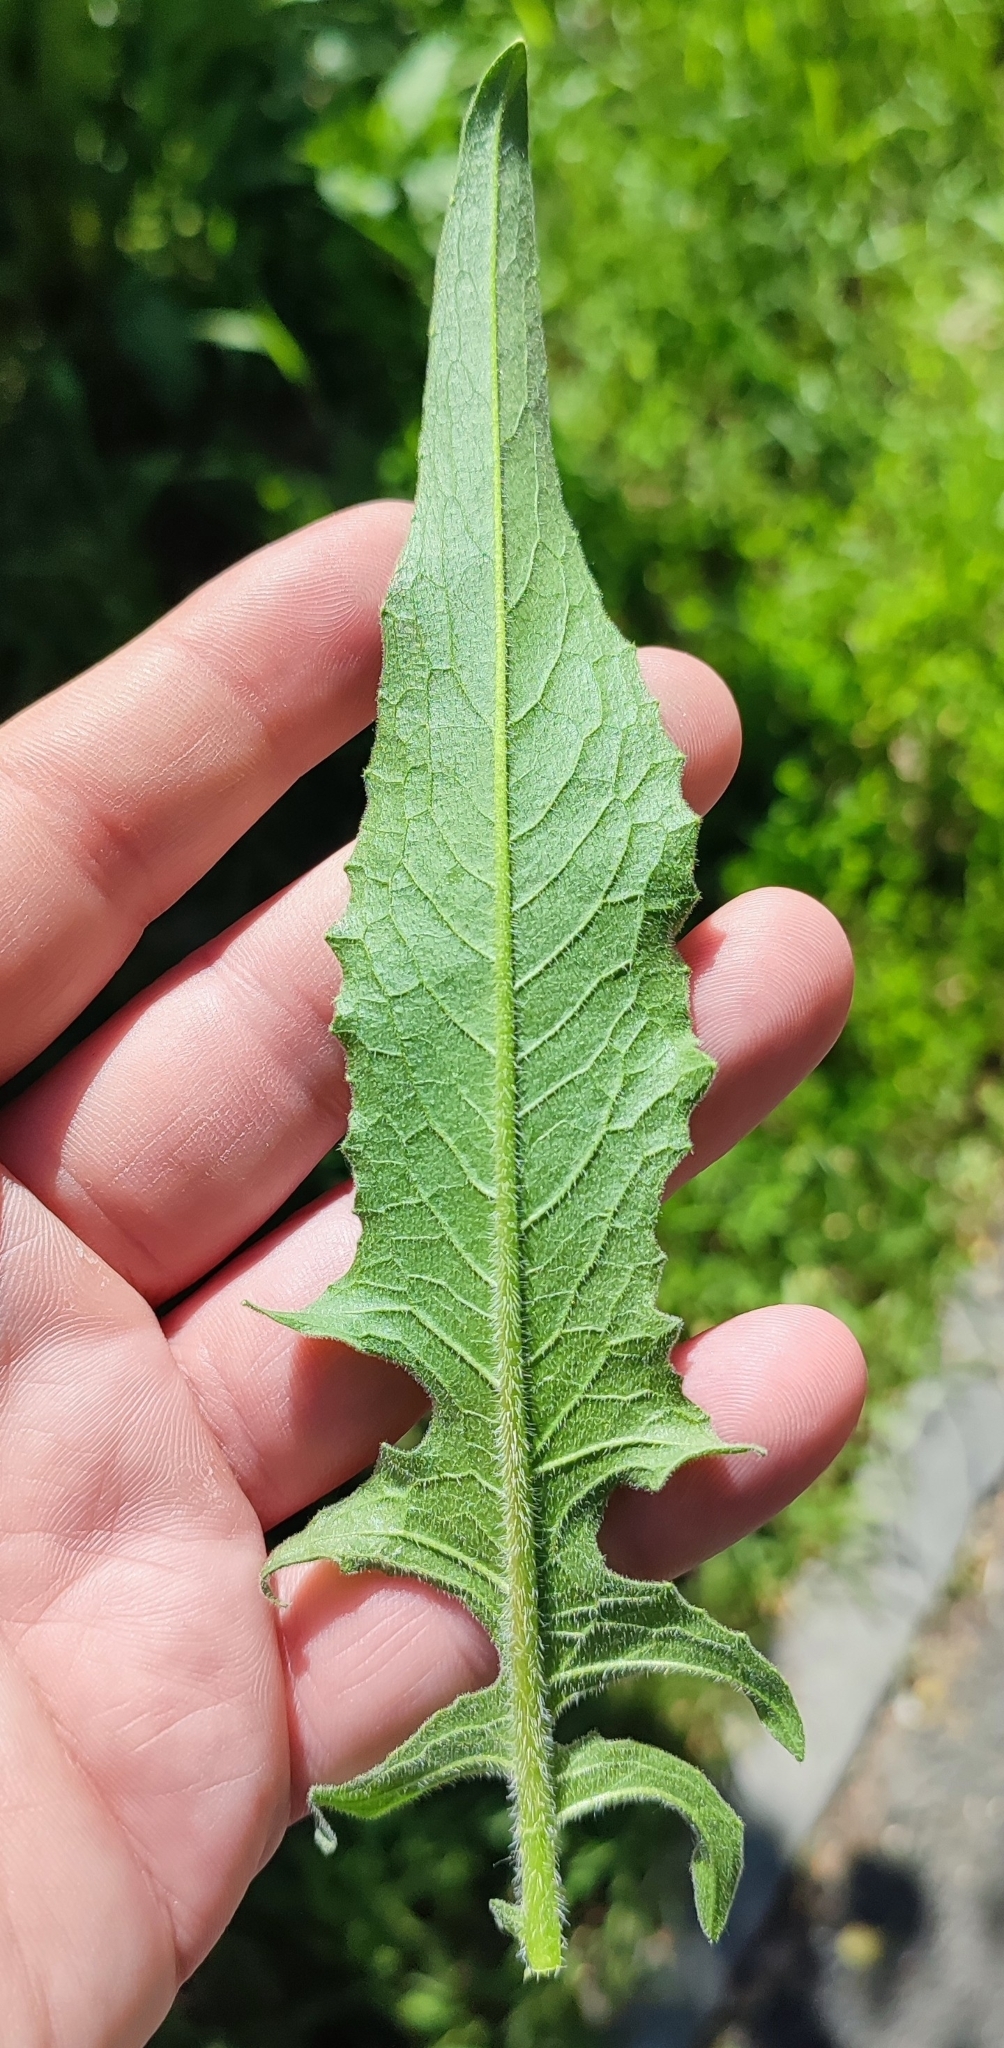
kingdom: Plantae
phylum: Tracheophyta
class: Magnoliopsida
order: Brassicales
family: Brassicaceae
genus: Bunias
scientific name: Bunias orientalis
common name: Warty-cabbage
